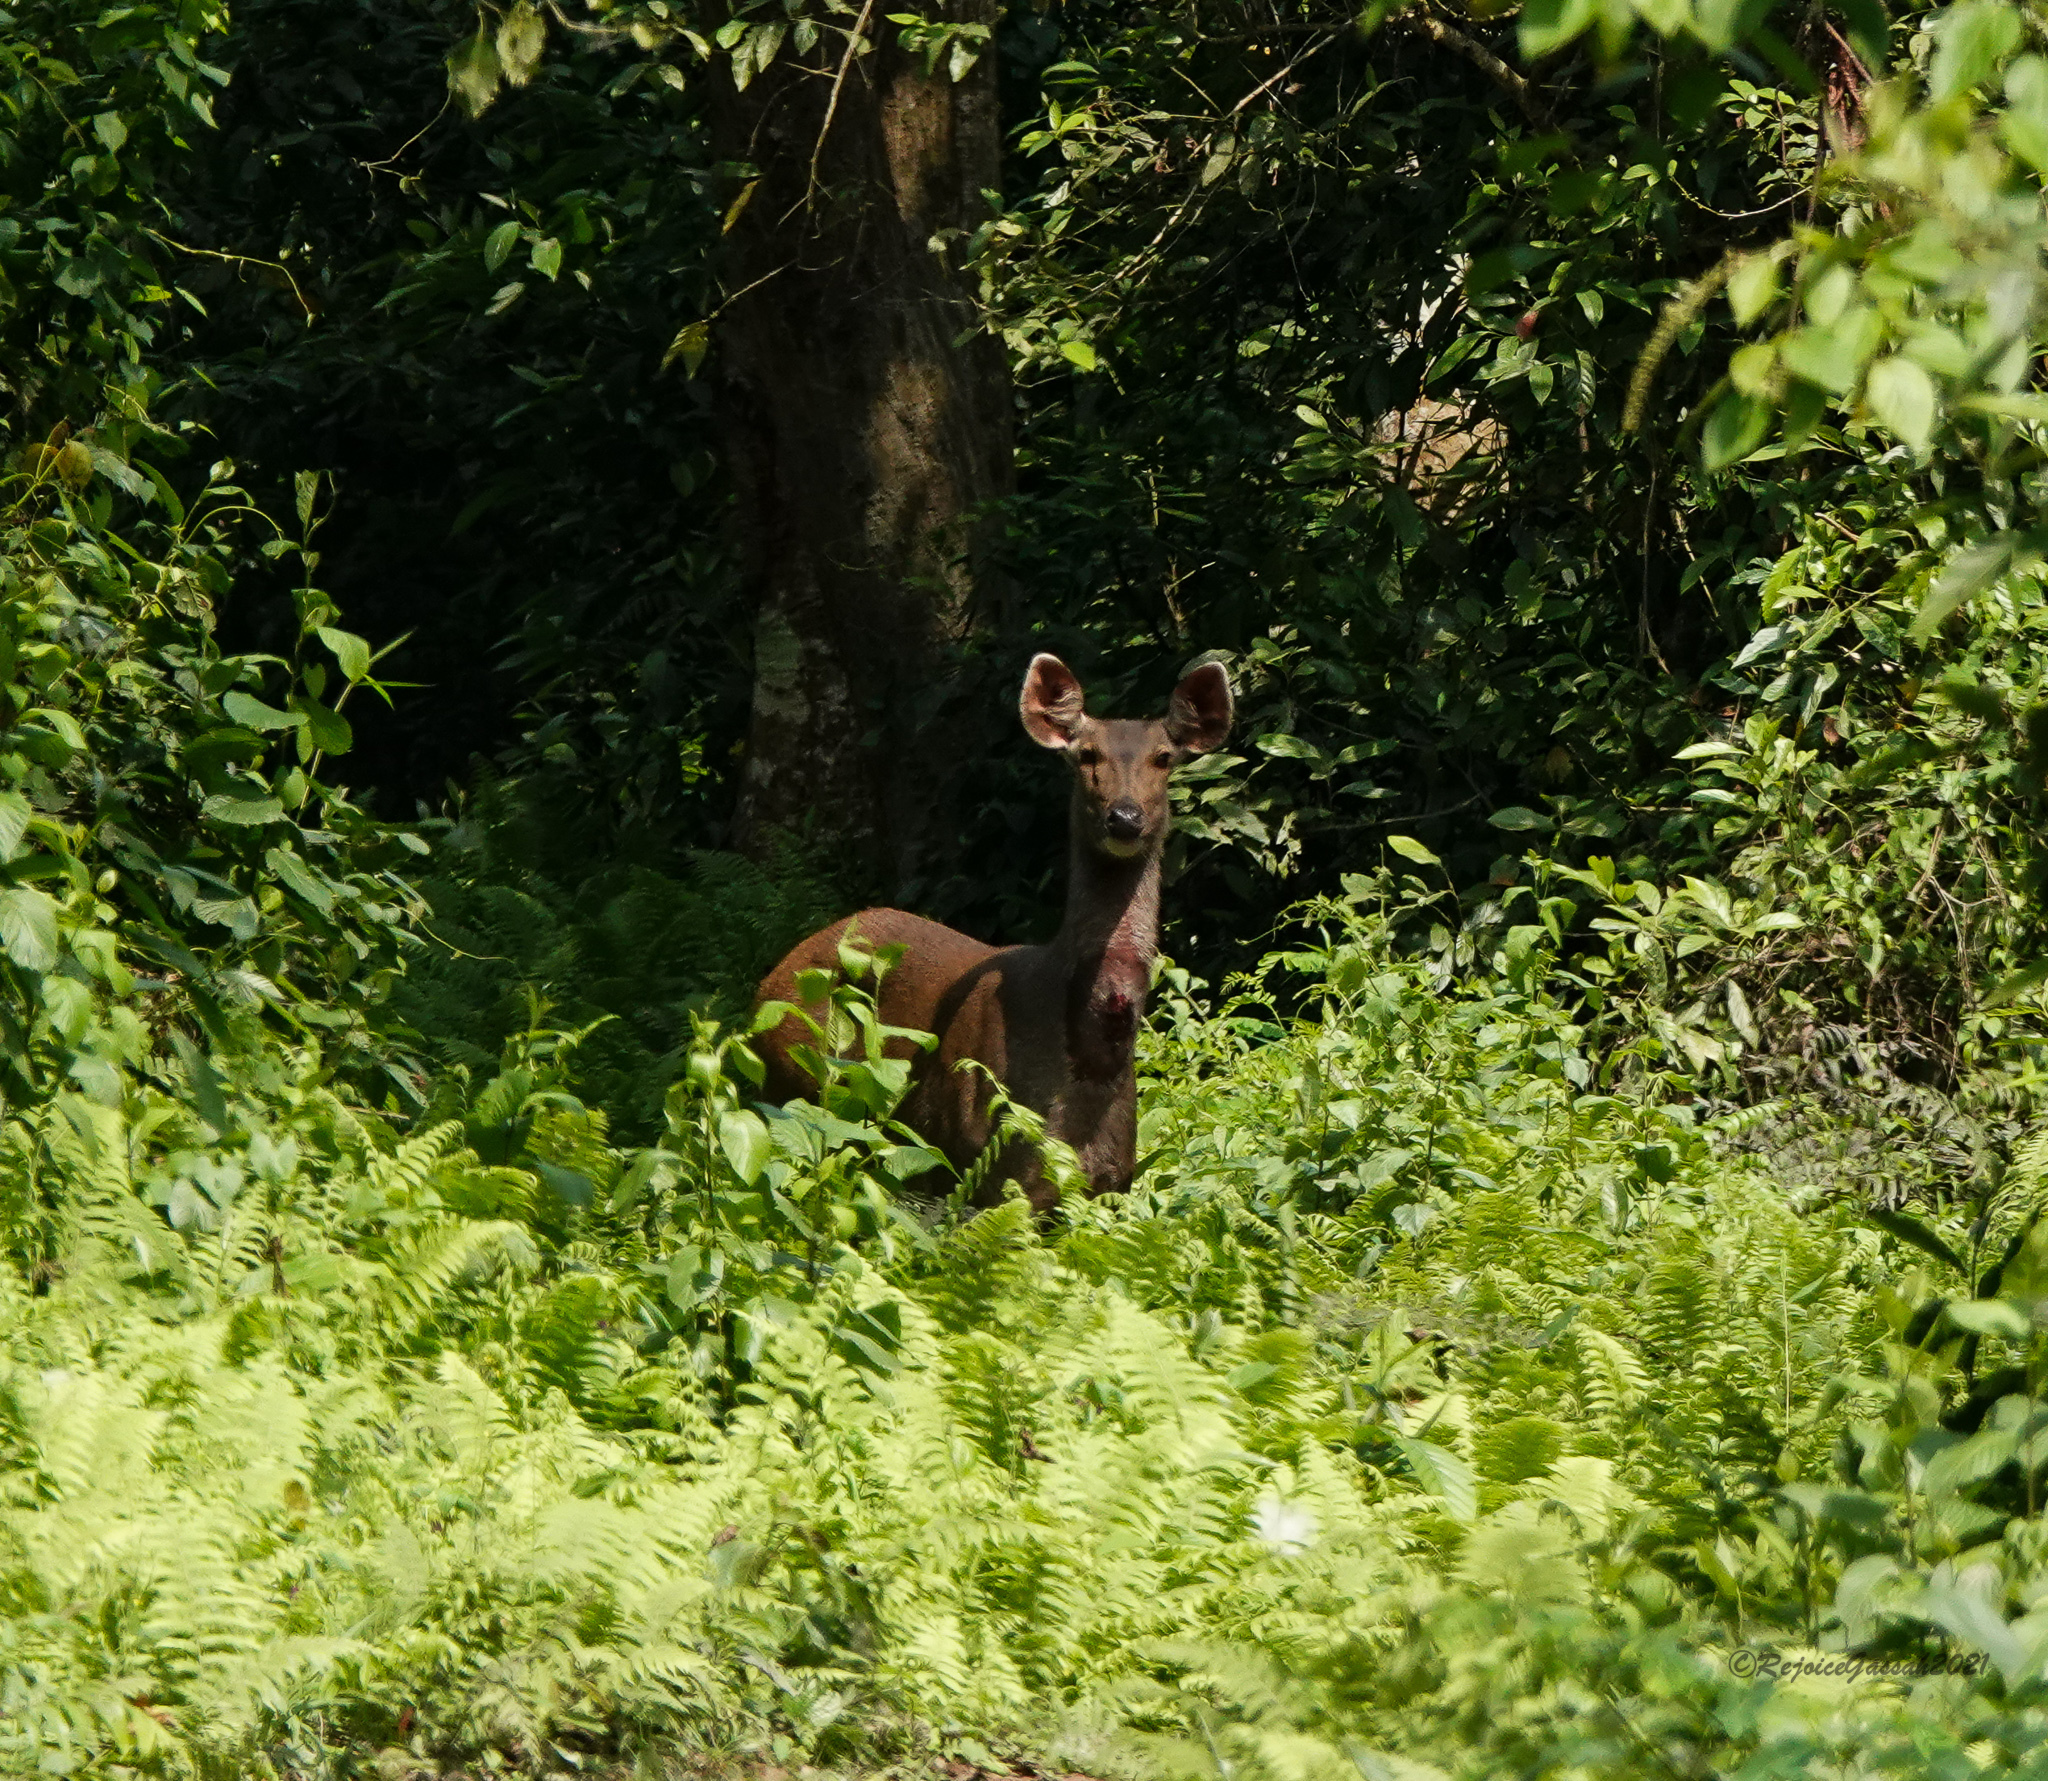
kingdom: Animalia
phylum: Chordata
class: Mammalia
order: Artiodactyla
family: Cervidae
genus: Rusa
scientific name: Rusa unicolor
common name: Sambar
